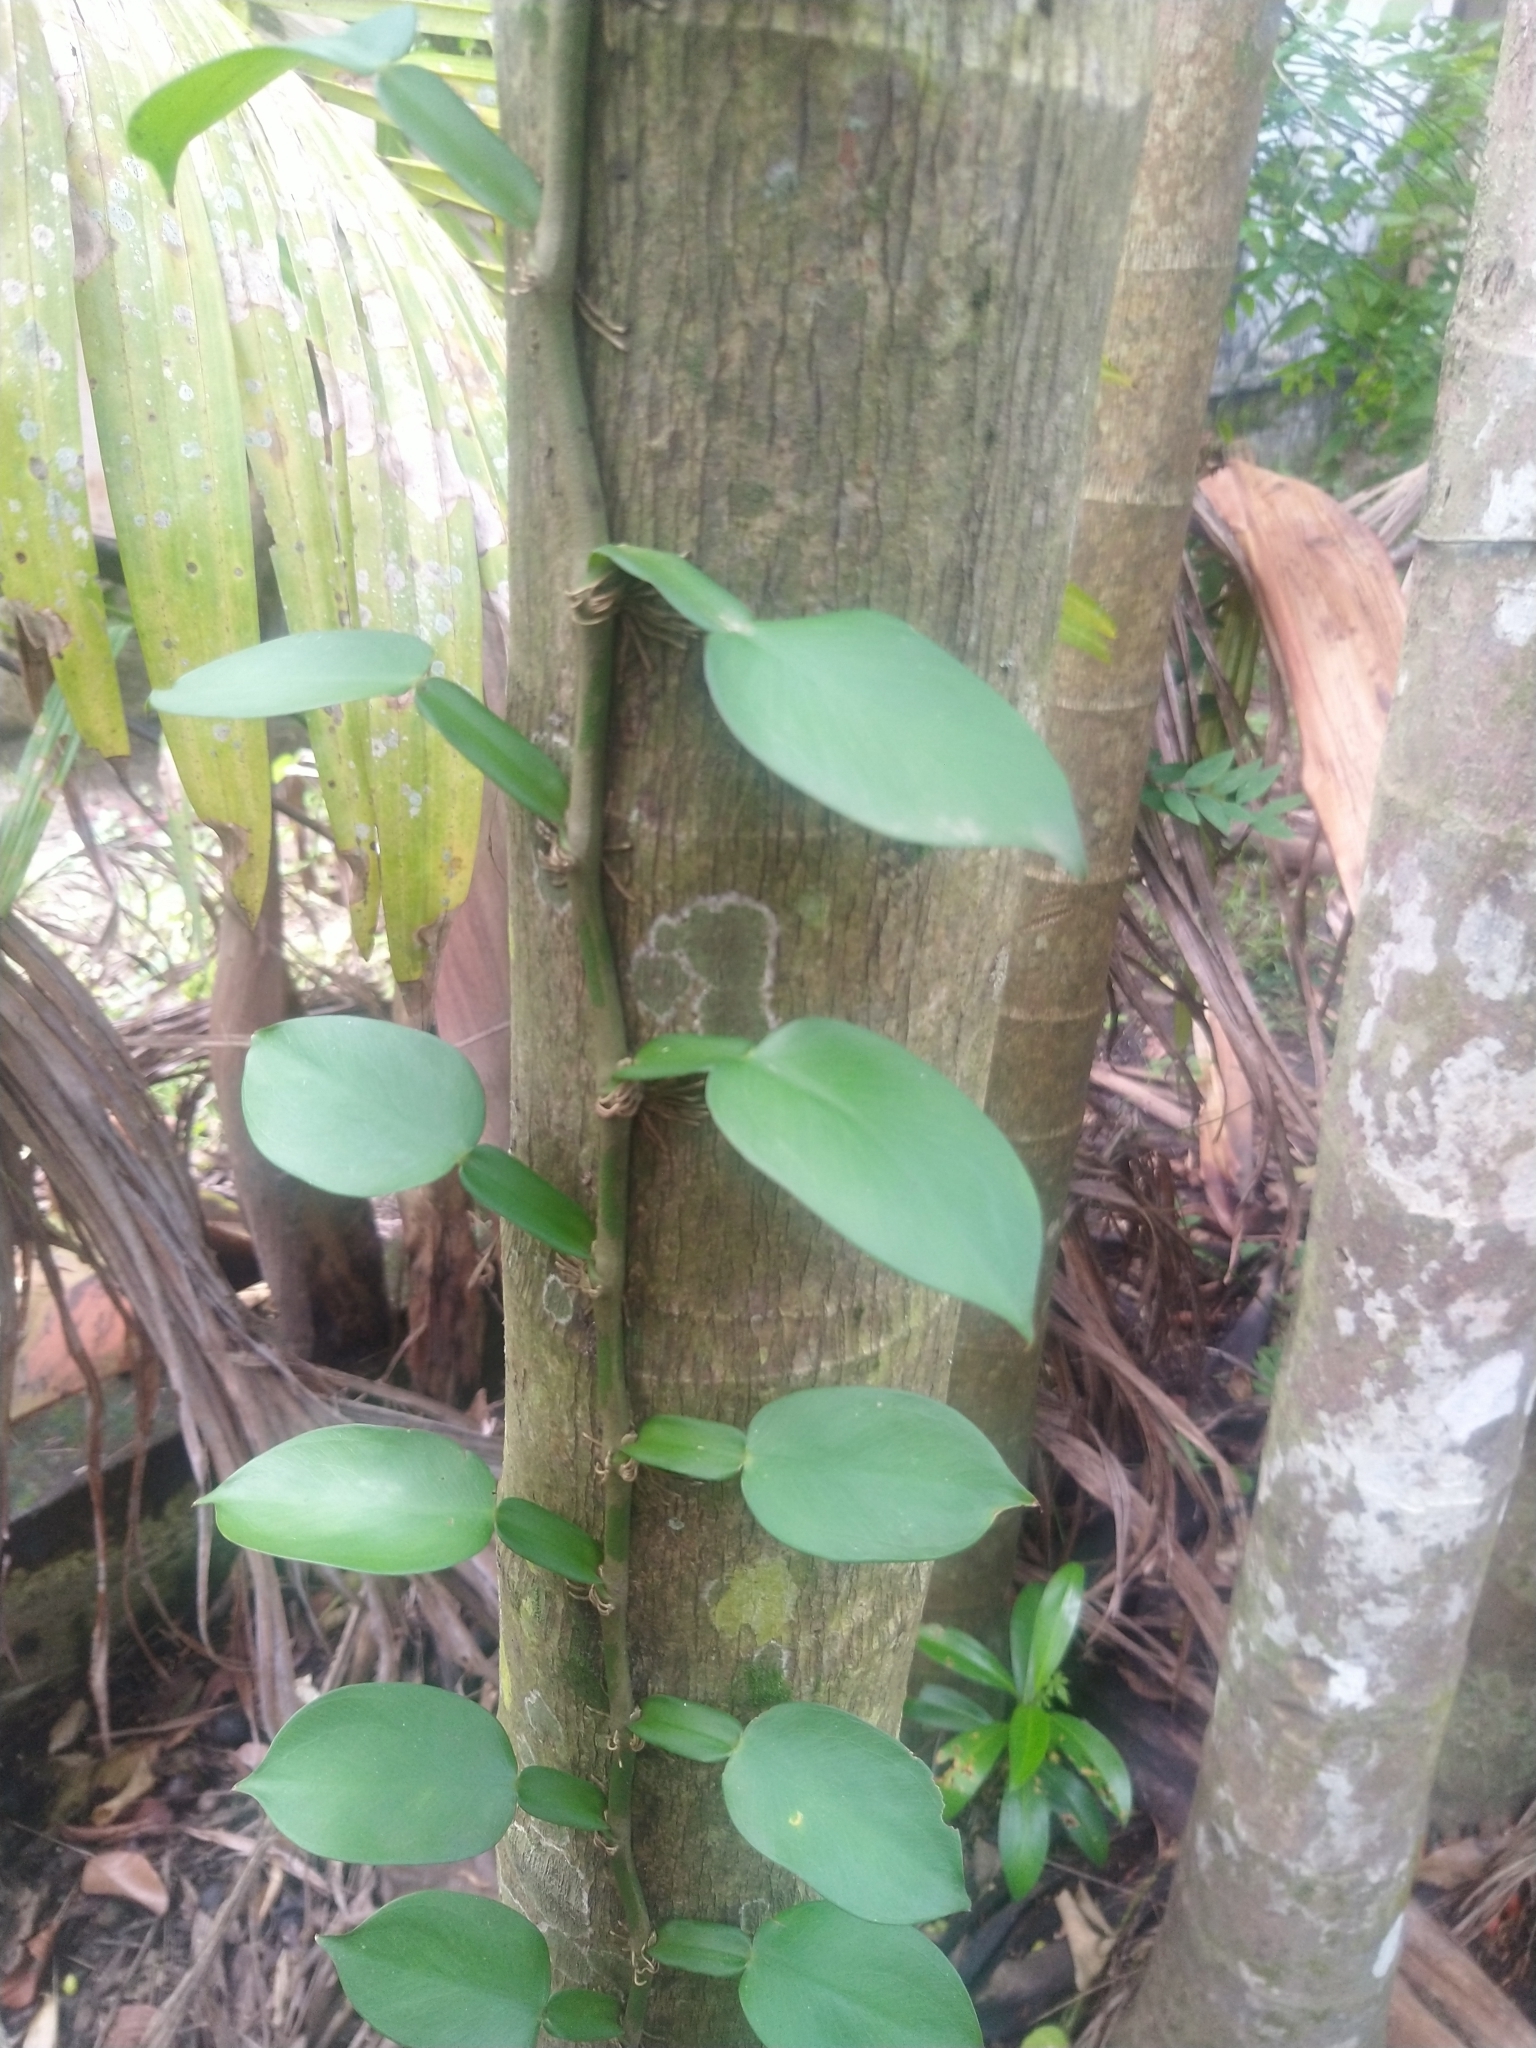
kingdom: Plantae
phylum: Tracheophyta
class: Liliopsida
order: Alismatales
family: Araceae
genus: Pothos
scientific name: Pothos chinensis
